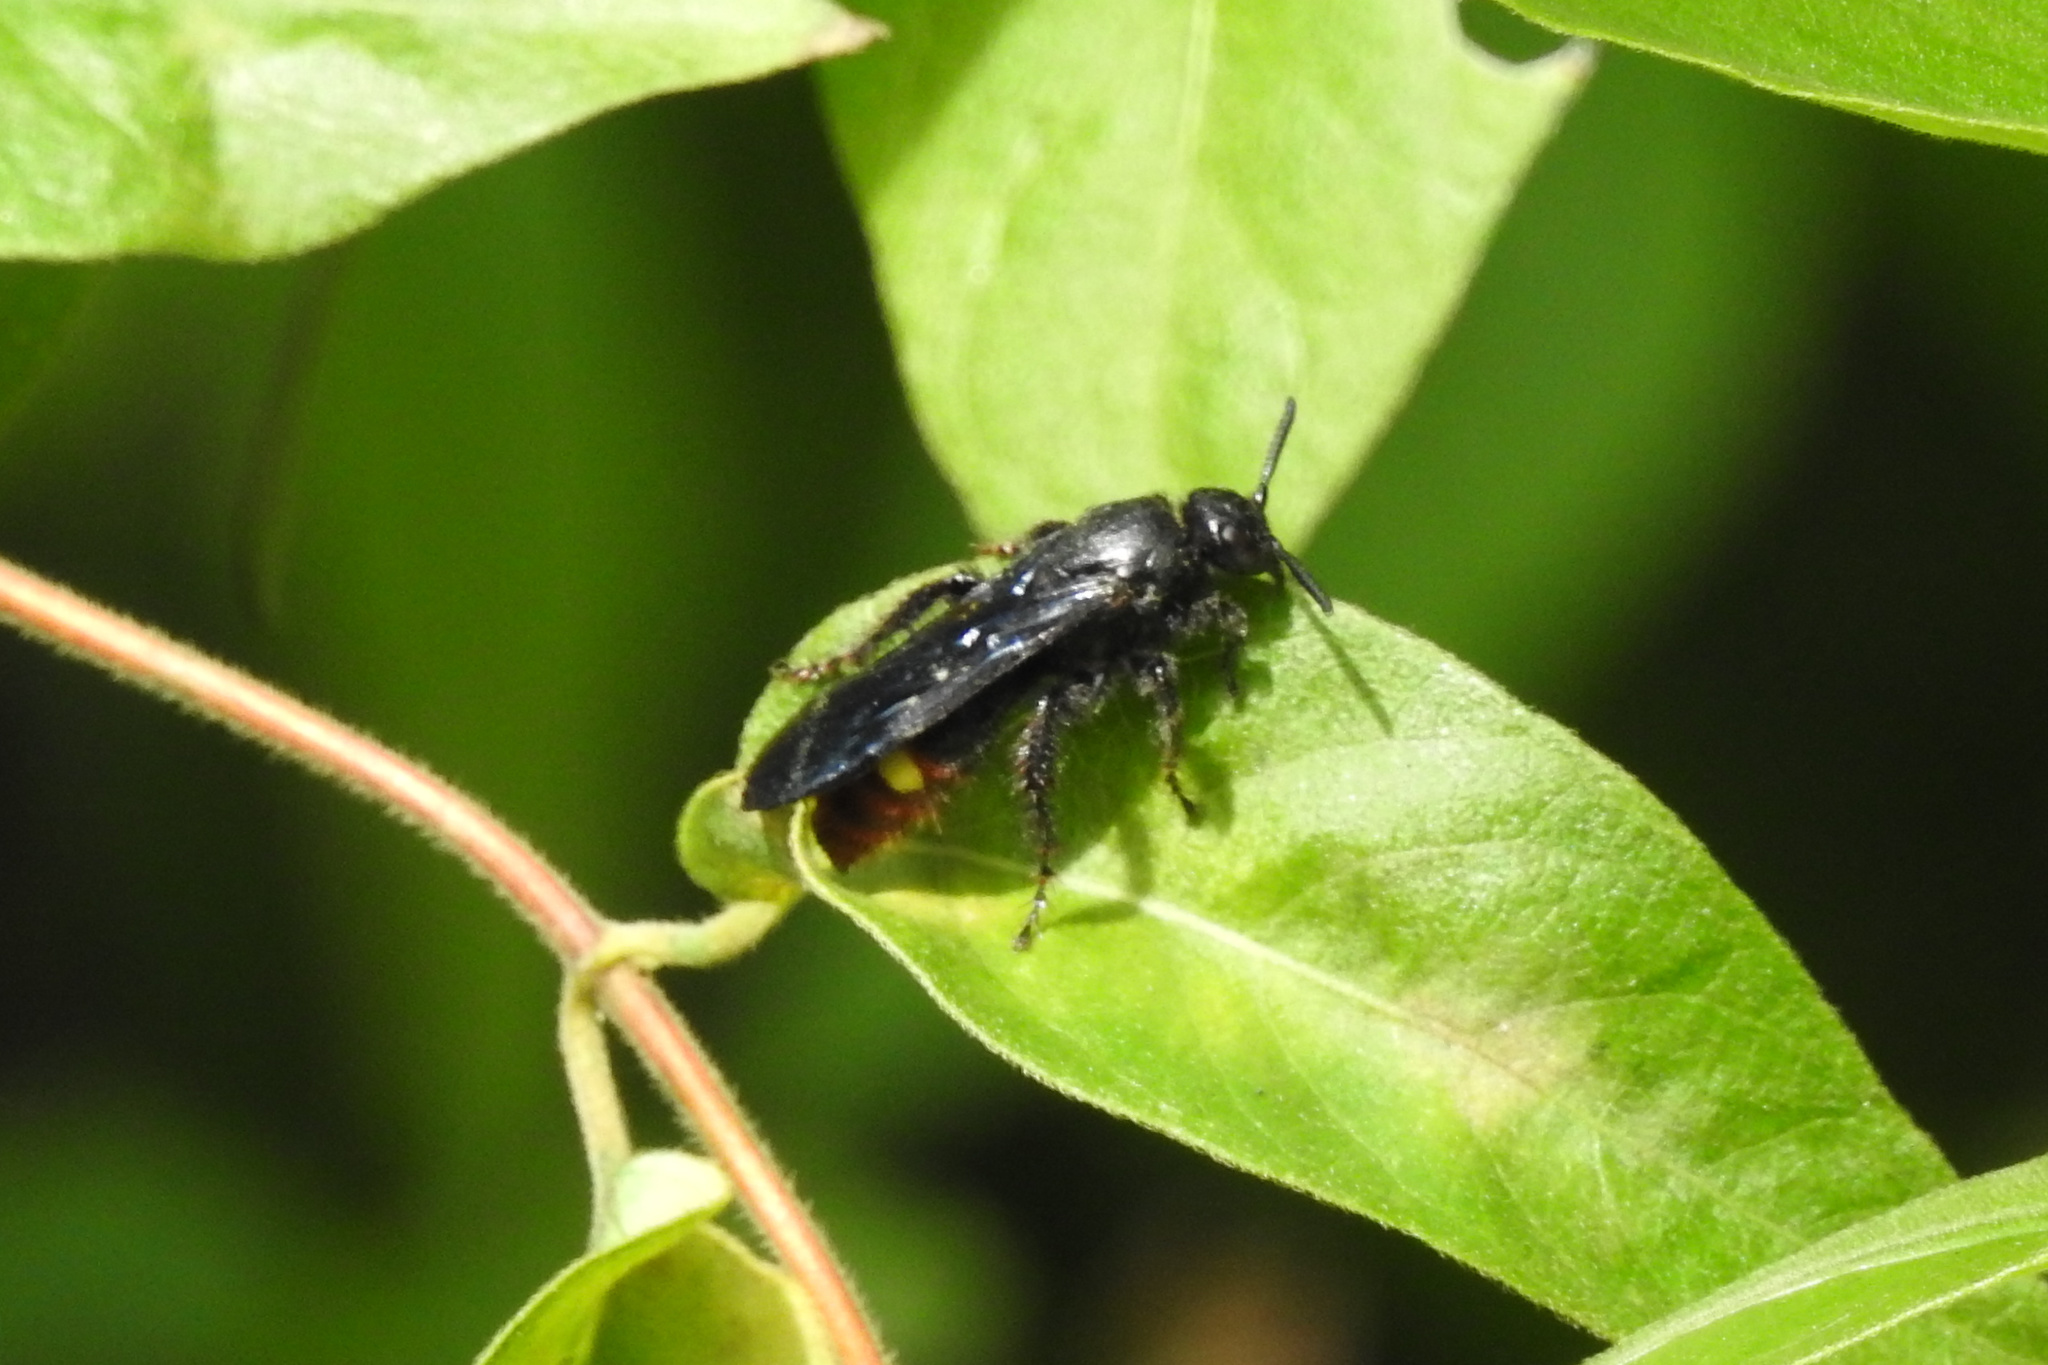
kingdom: Animalia
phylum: Arthropoda
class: Insecta
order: Hymenoptera
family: Scoliidae
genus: Scolia
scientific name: Scolia dubia
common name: Blue-winged scoliid wasp
